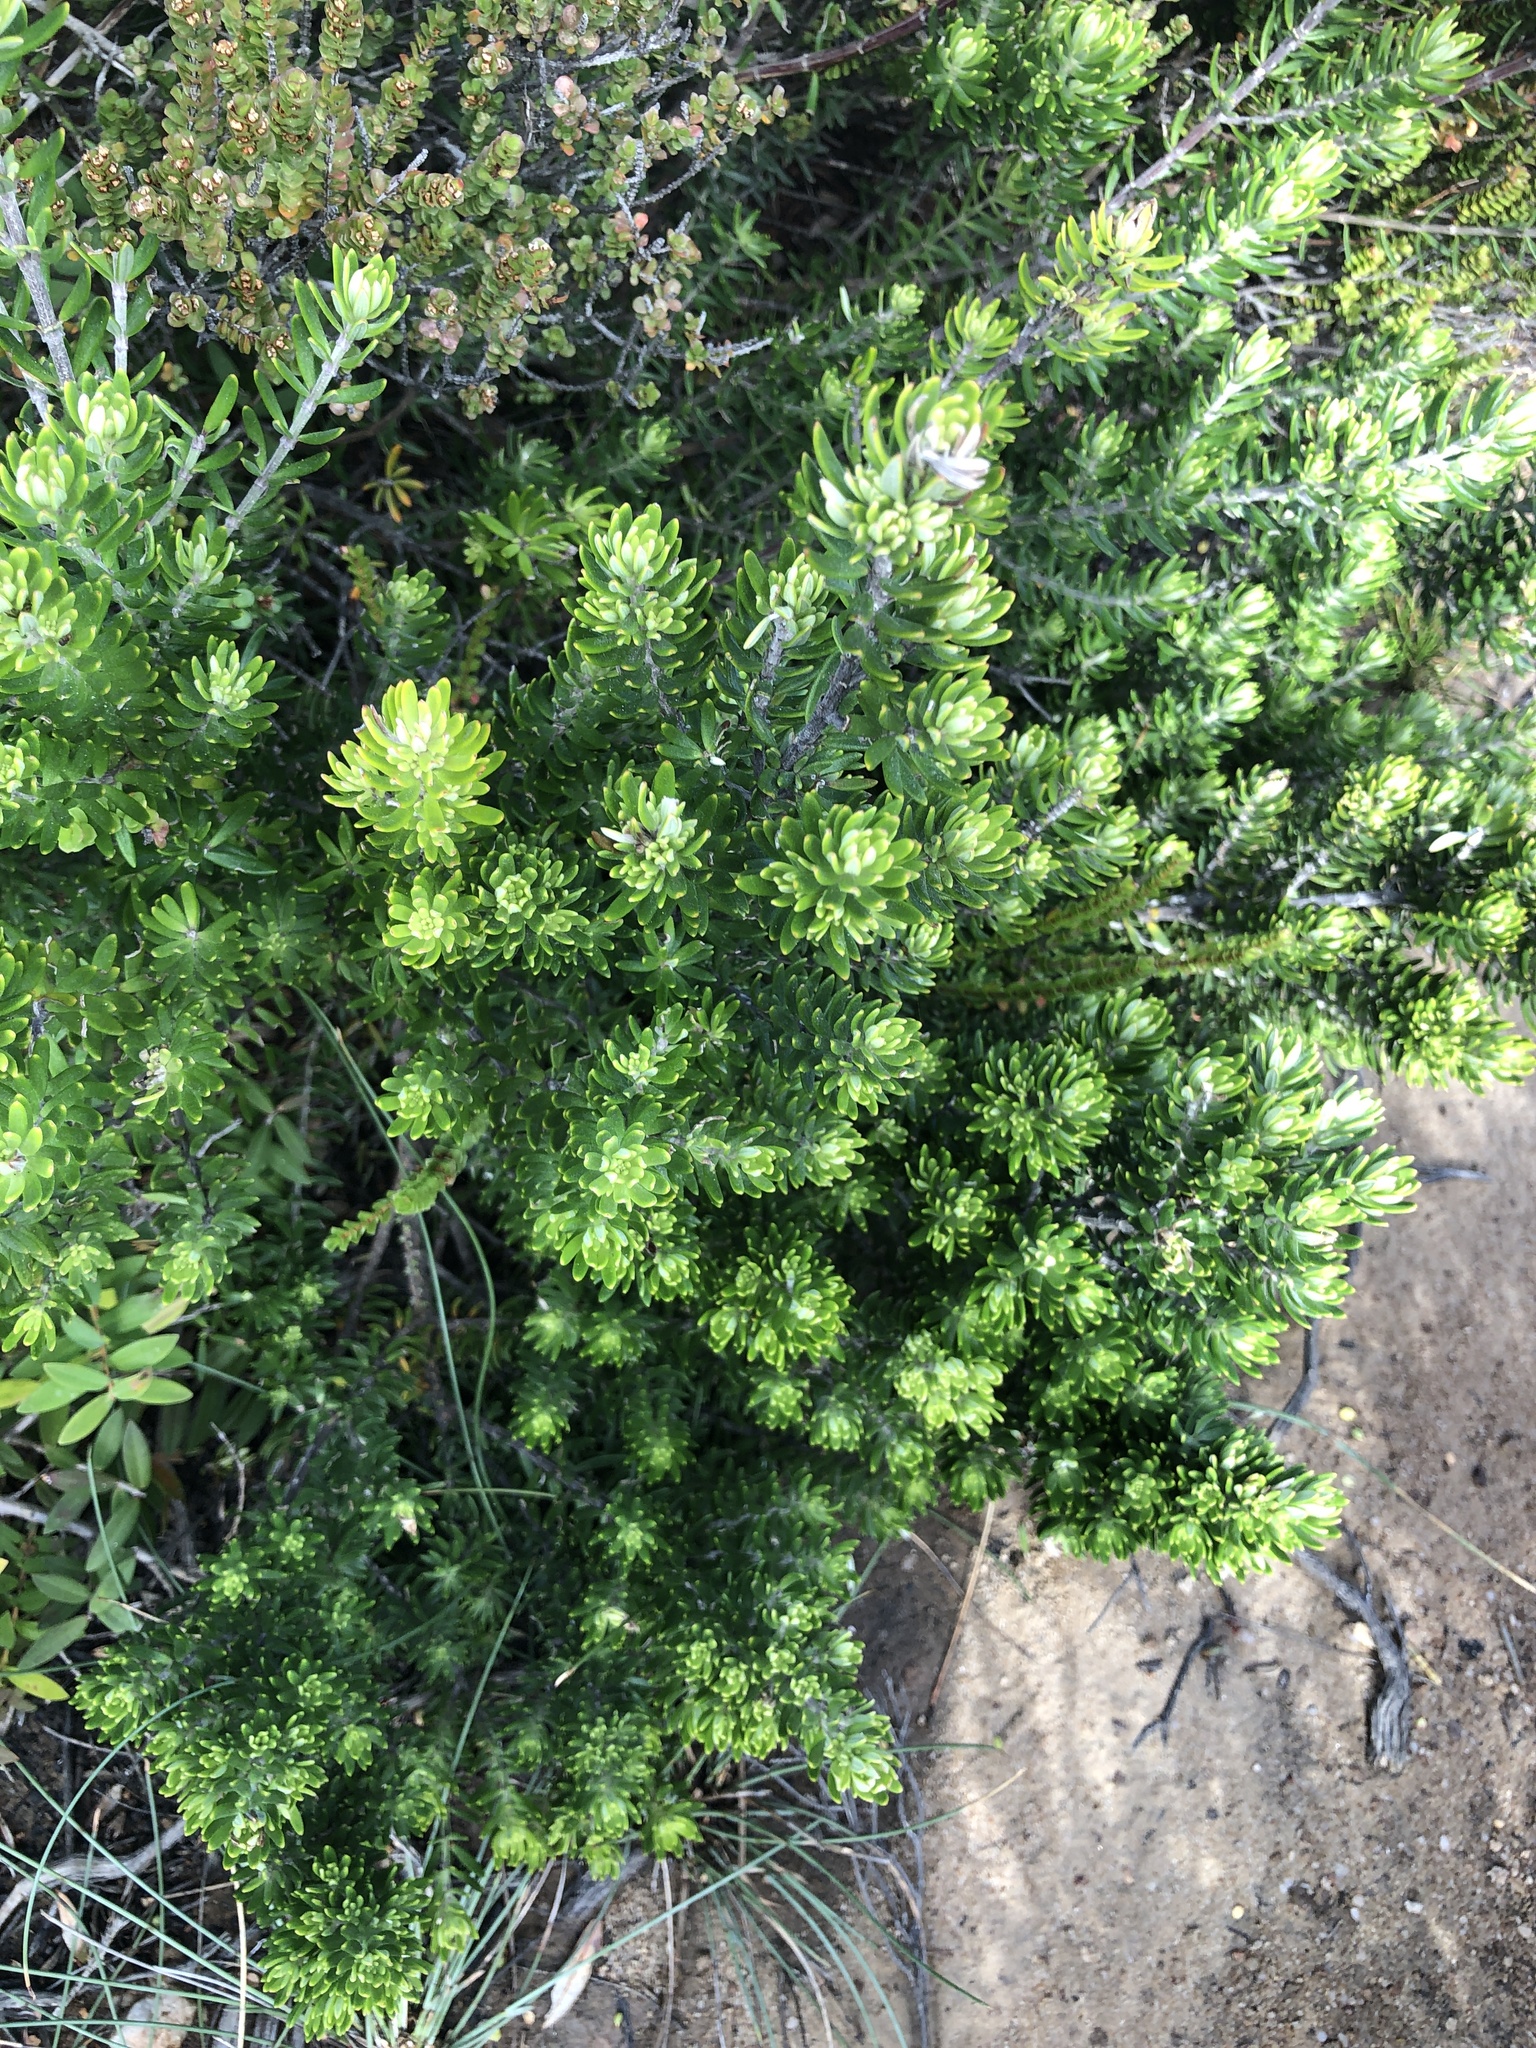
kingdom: Plantae
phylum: Tracheophyta
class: Magnoliopsida
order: Lamiales
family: Lamiaceae
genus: Westringia
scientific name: Westringia fruticosa
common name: Coastal-rosemary
